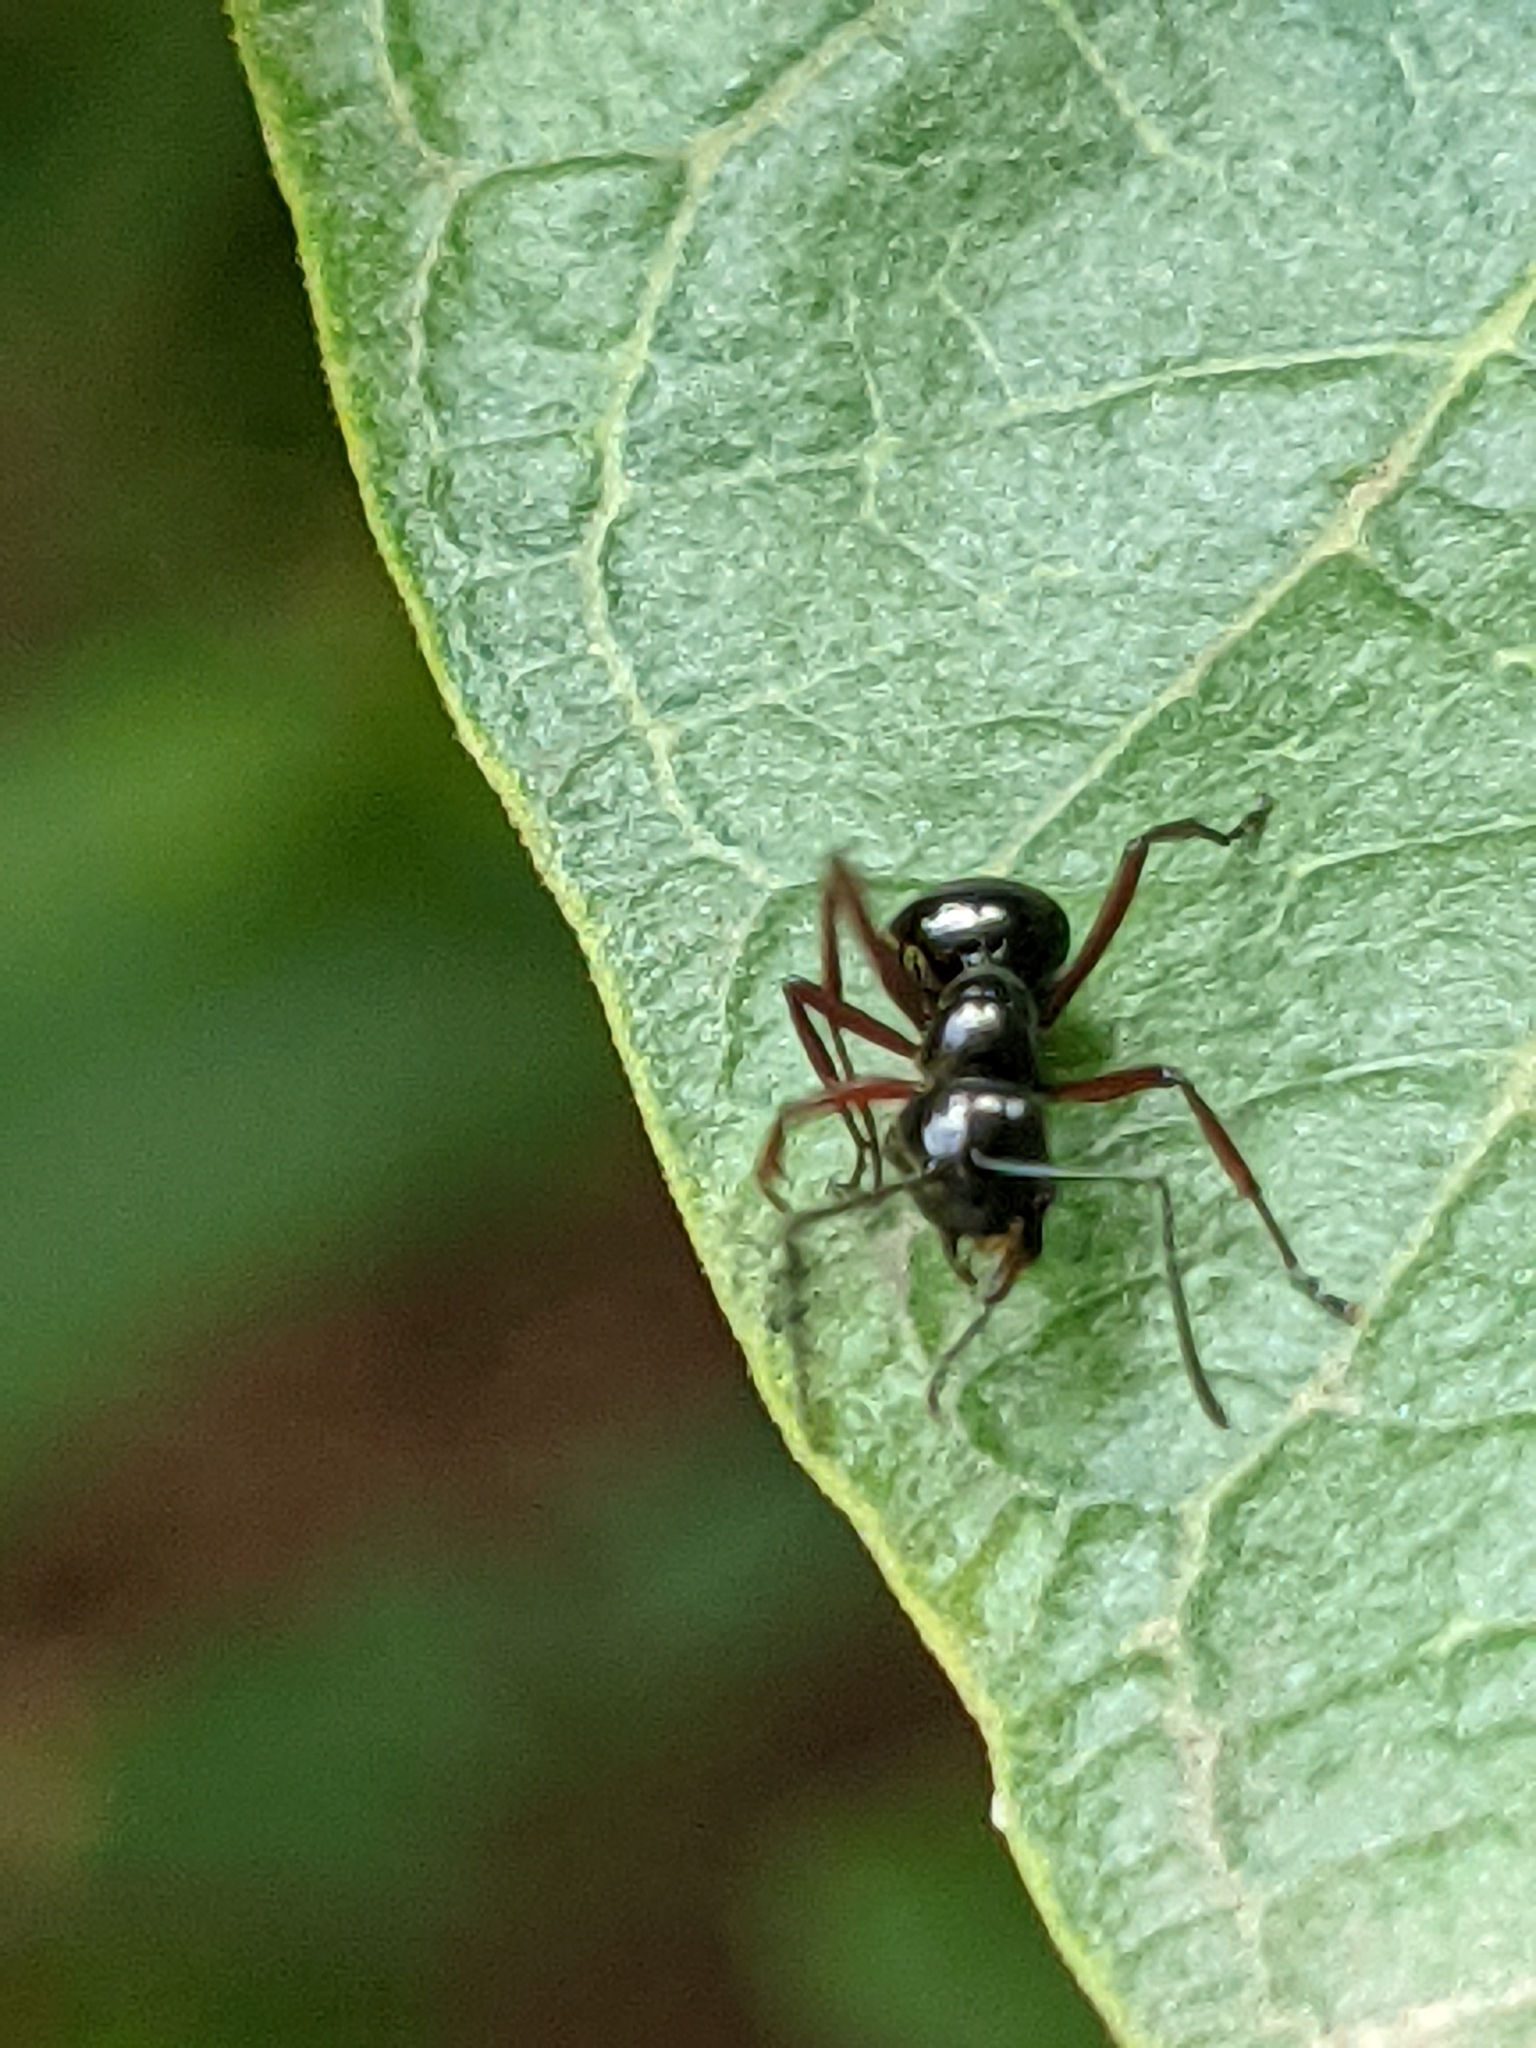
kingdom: Animalia
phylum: Arthropoda
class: Insecta
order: Hymenoptera
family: Formicidae
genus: Polyrhachis
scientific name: Polyrhachis rastellata
